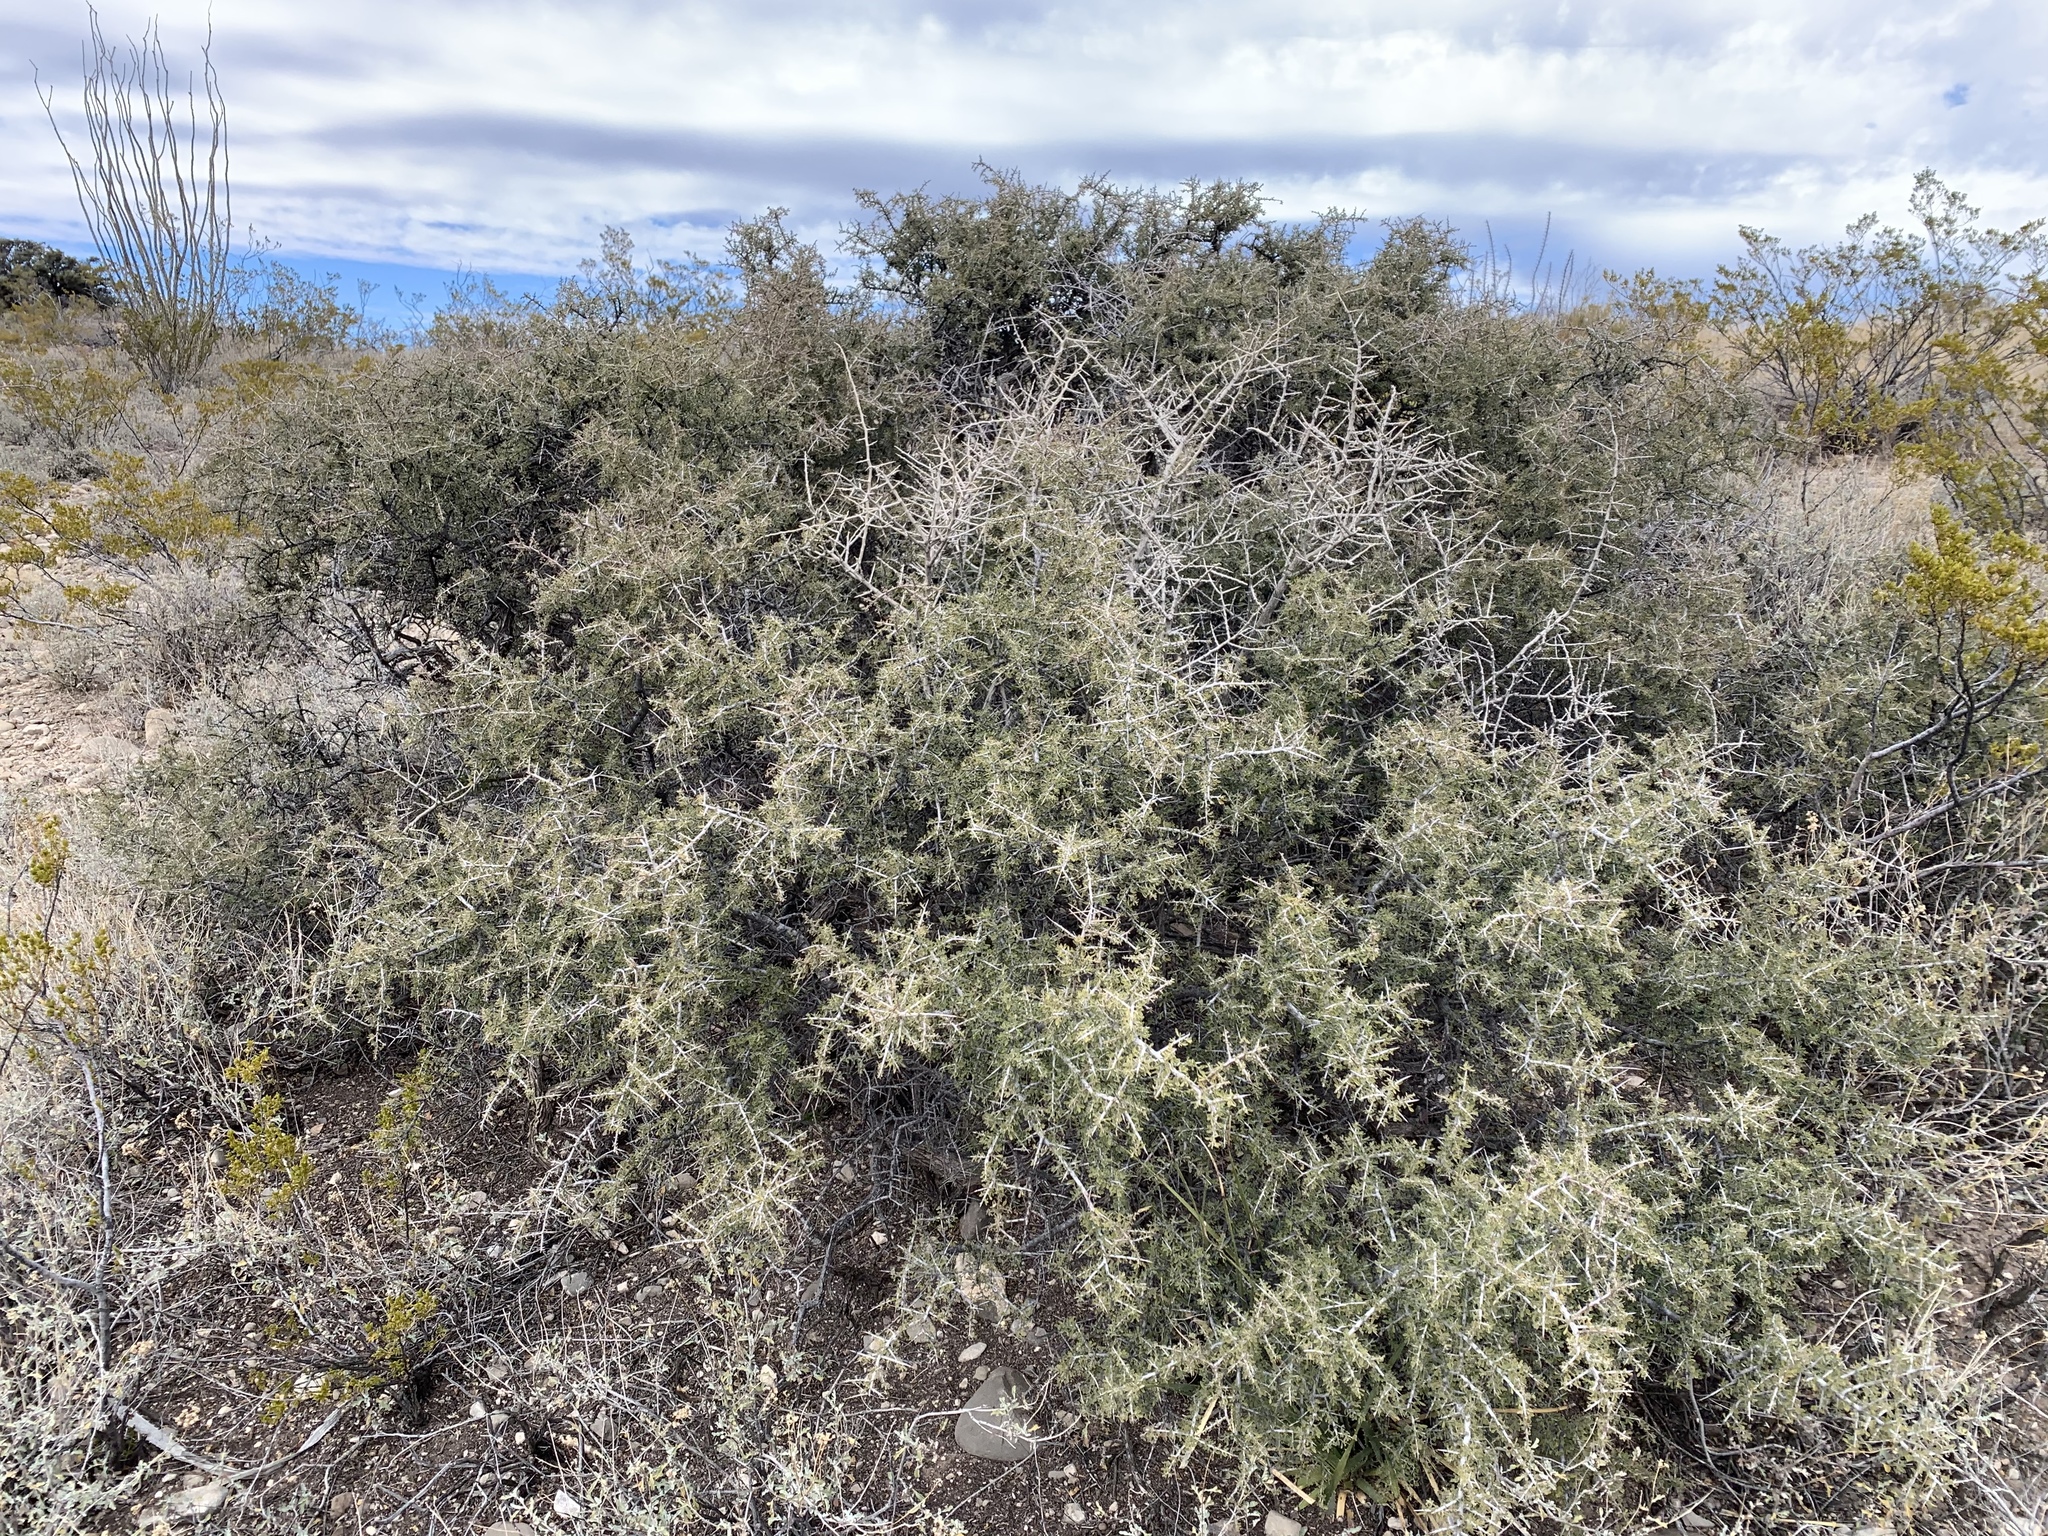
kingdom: Plantae
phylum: Tracheophyta
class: Magnoliopsida
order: Rosales
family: Rhamnaceae
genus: Condalia
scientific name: Condalia warnockii
